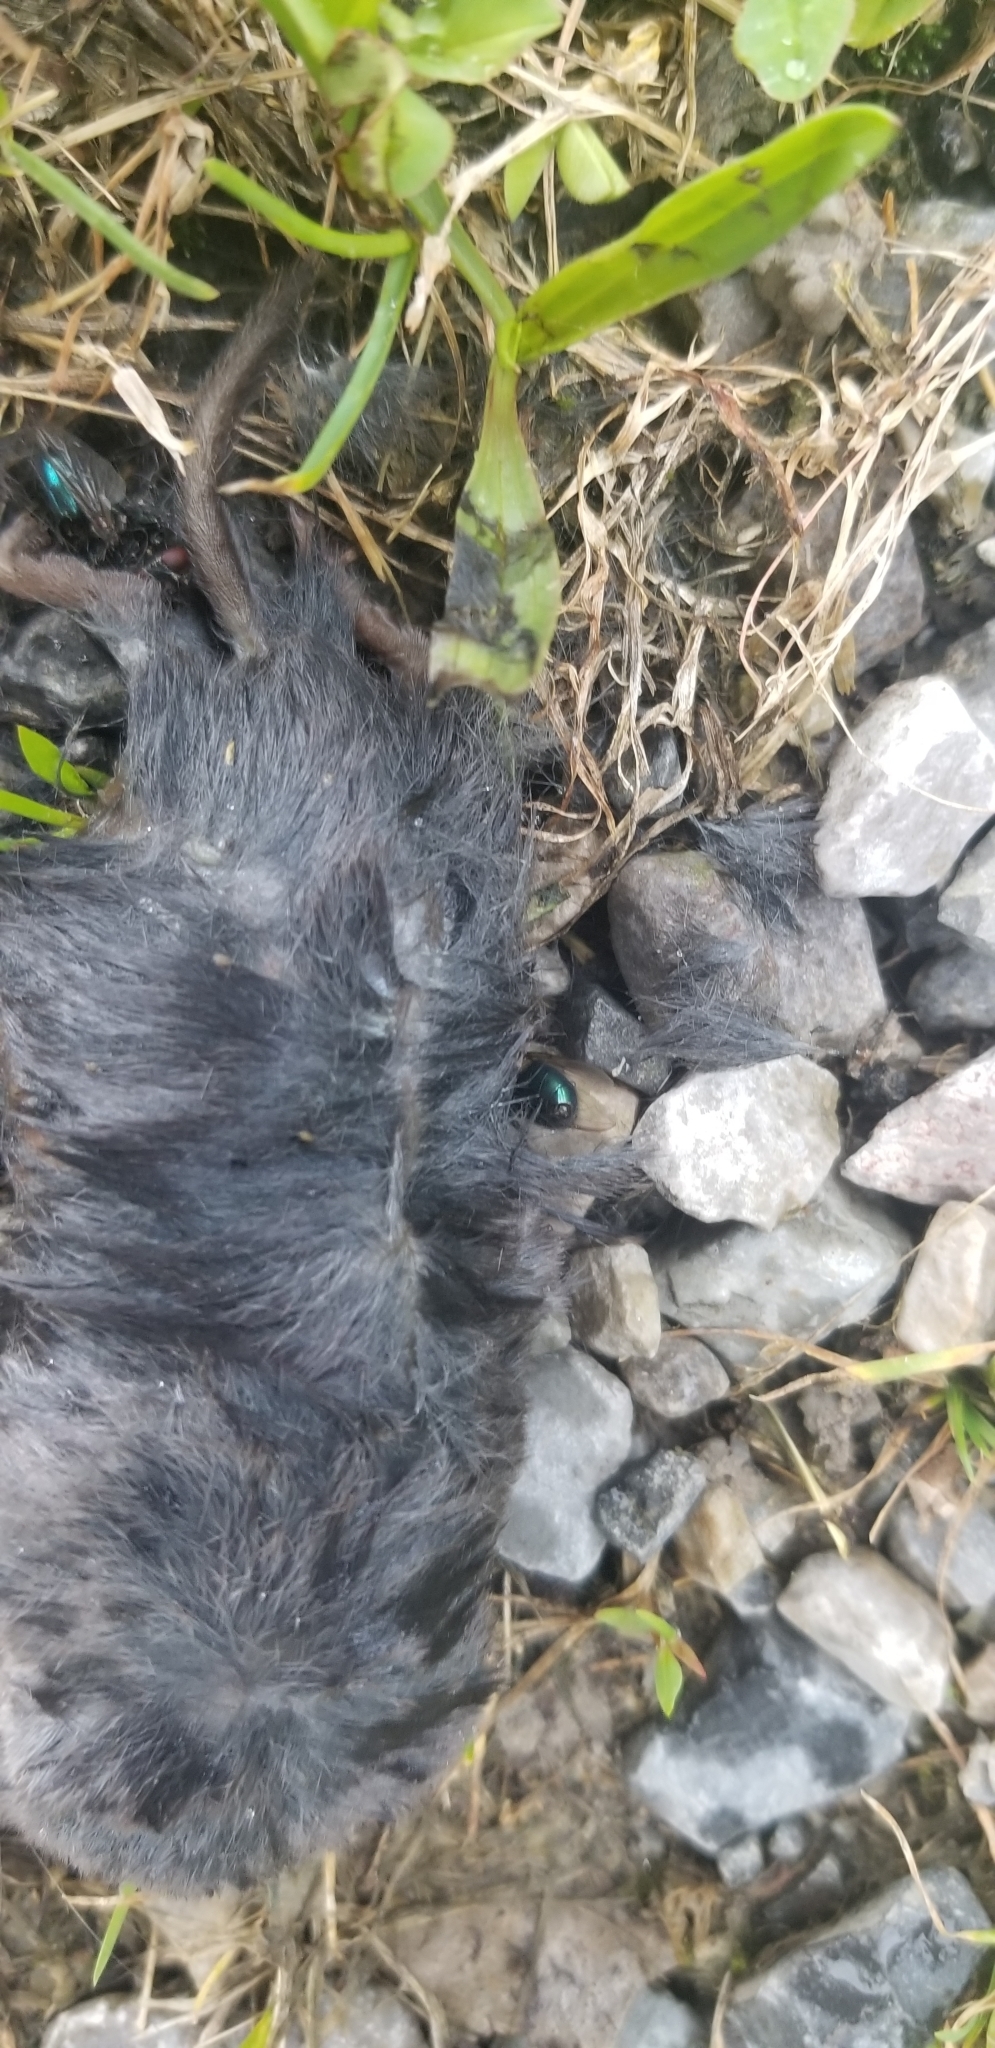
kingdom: Animalia
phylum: Chordata
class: Mammalia
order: Soricomorpha
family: Soricidae
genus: Blarina
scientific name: Blarina brevicauda
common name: Northern short-tailed shrew
